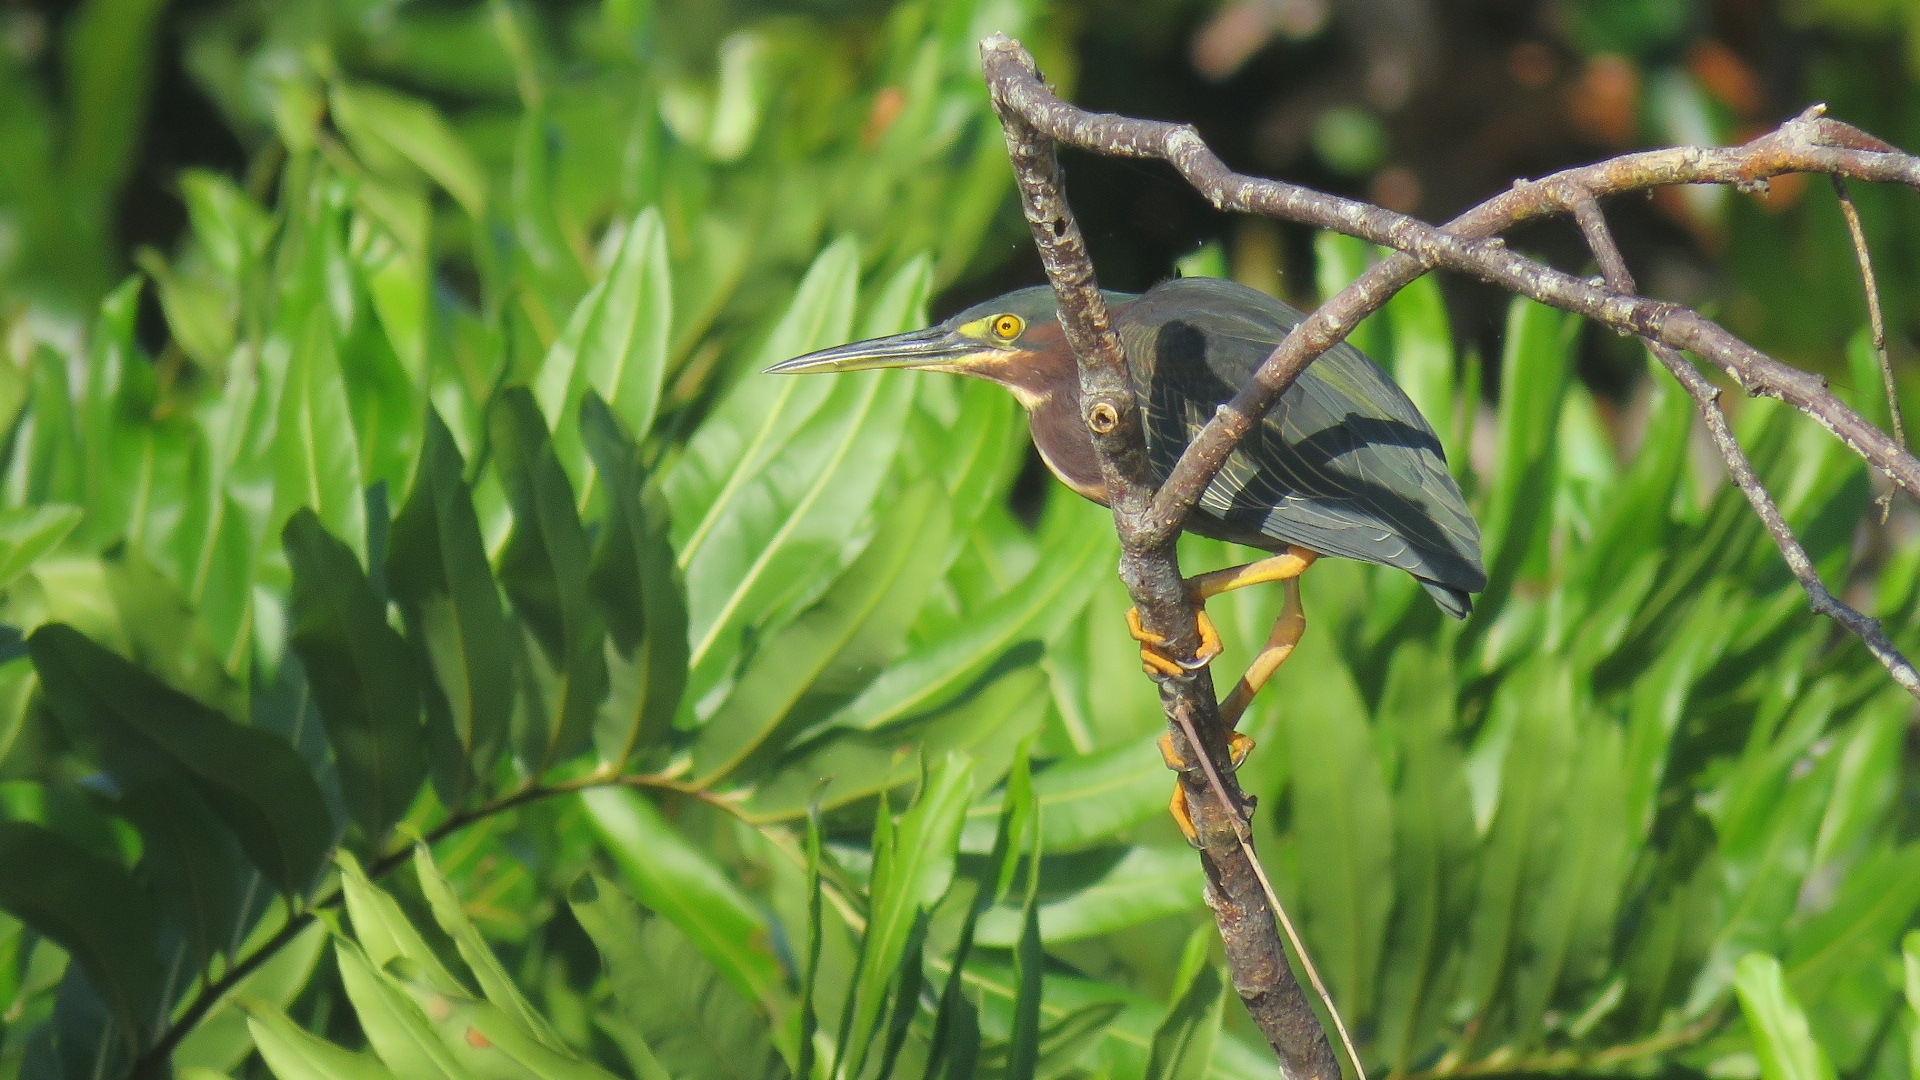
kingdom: Animalia
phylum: Chordata
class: Aves
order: Pelecaniformes
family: Ardeidae
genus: Butorides
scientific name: Butorides virescens
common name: Green heron
